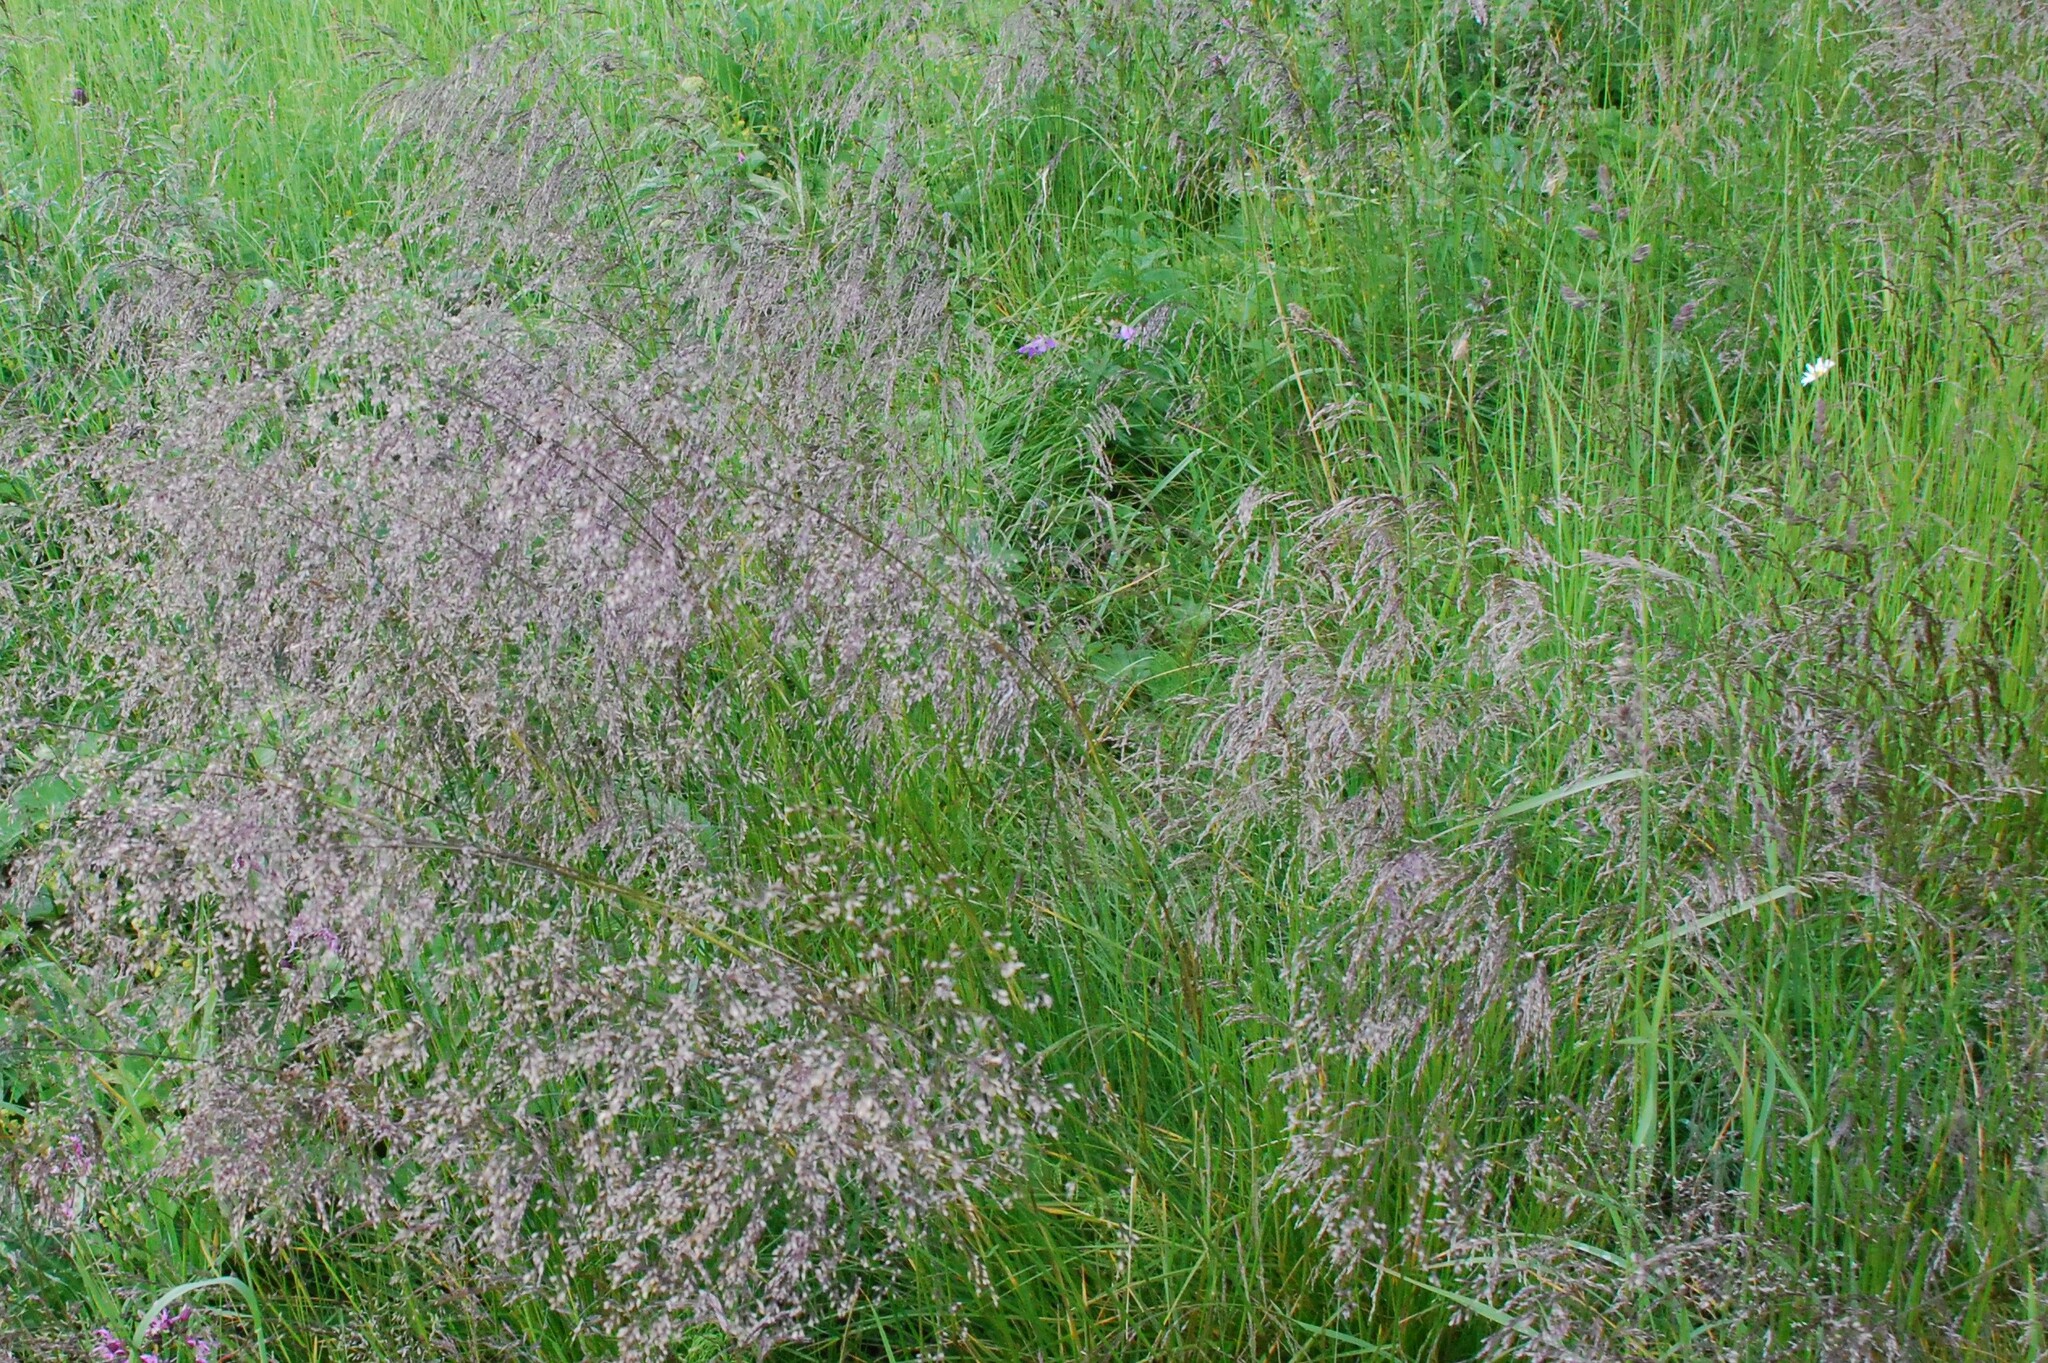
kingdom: Plantae
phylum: Tracheophyta
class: Liliopsida
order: Poales
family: Poaceae
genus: Deschampsia
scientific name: Deschampsia cespitosa
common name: Tufted hair-grass
